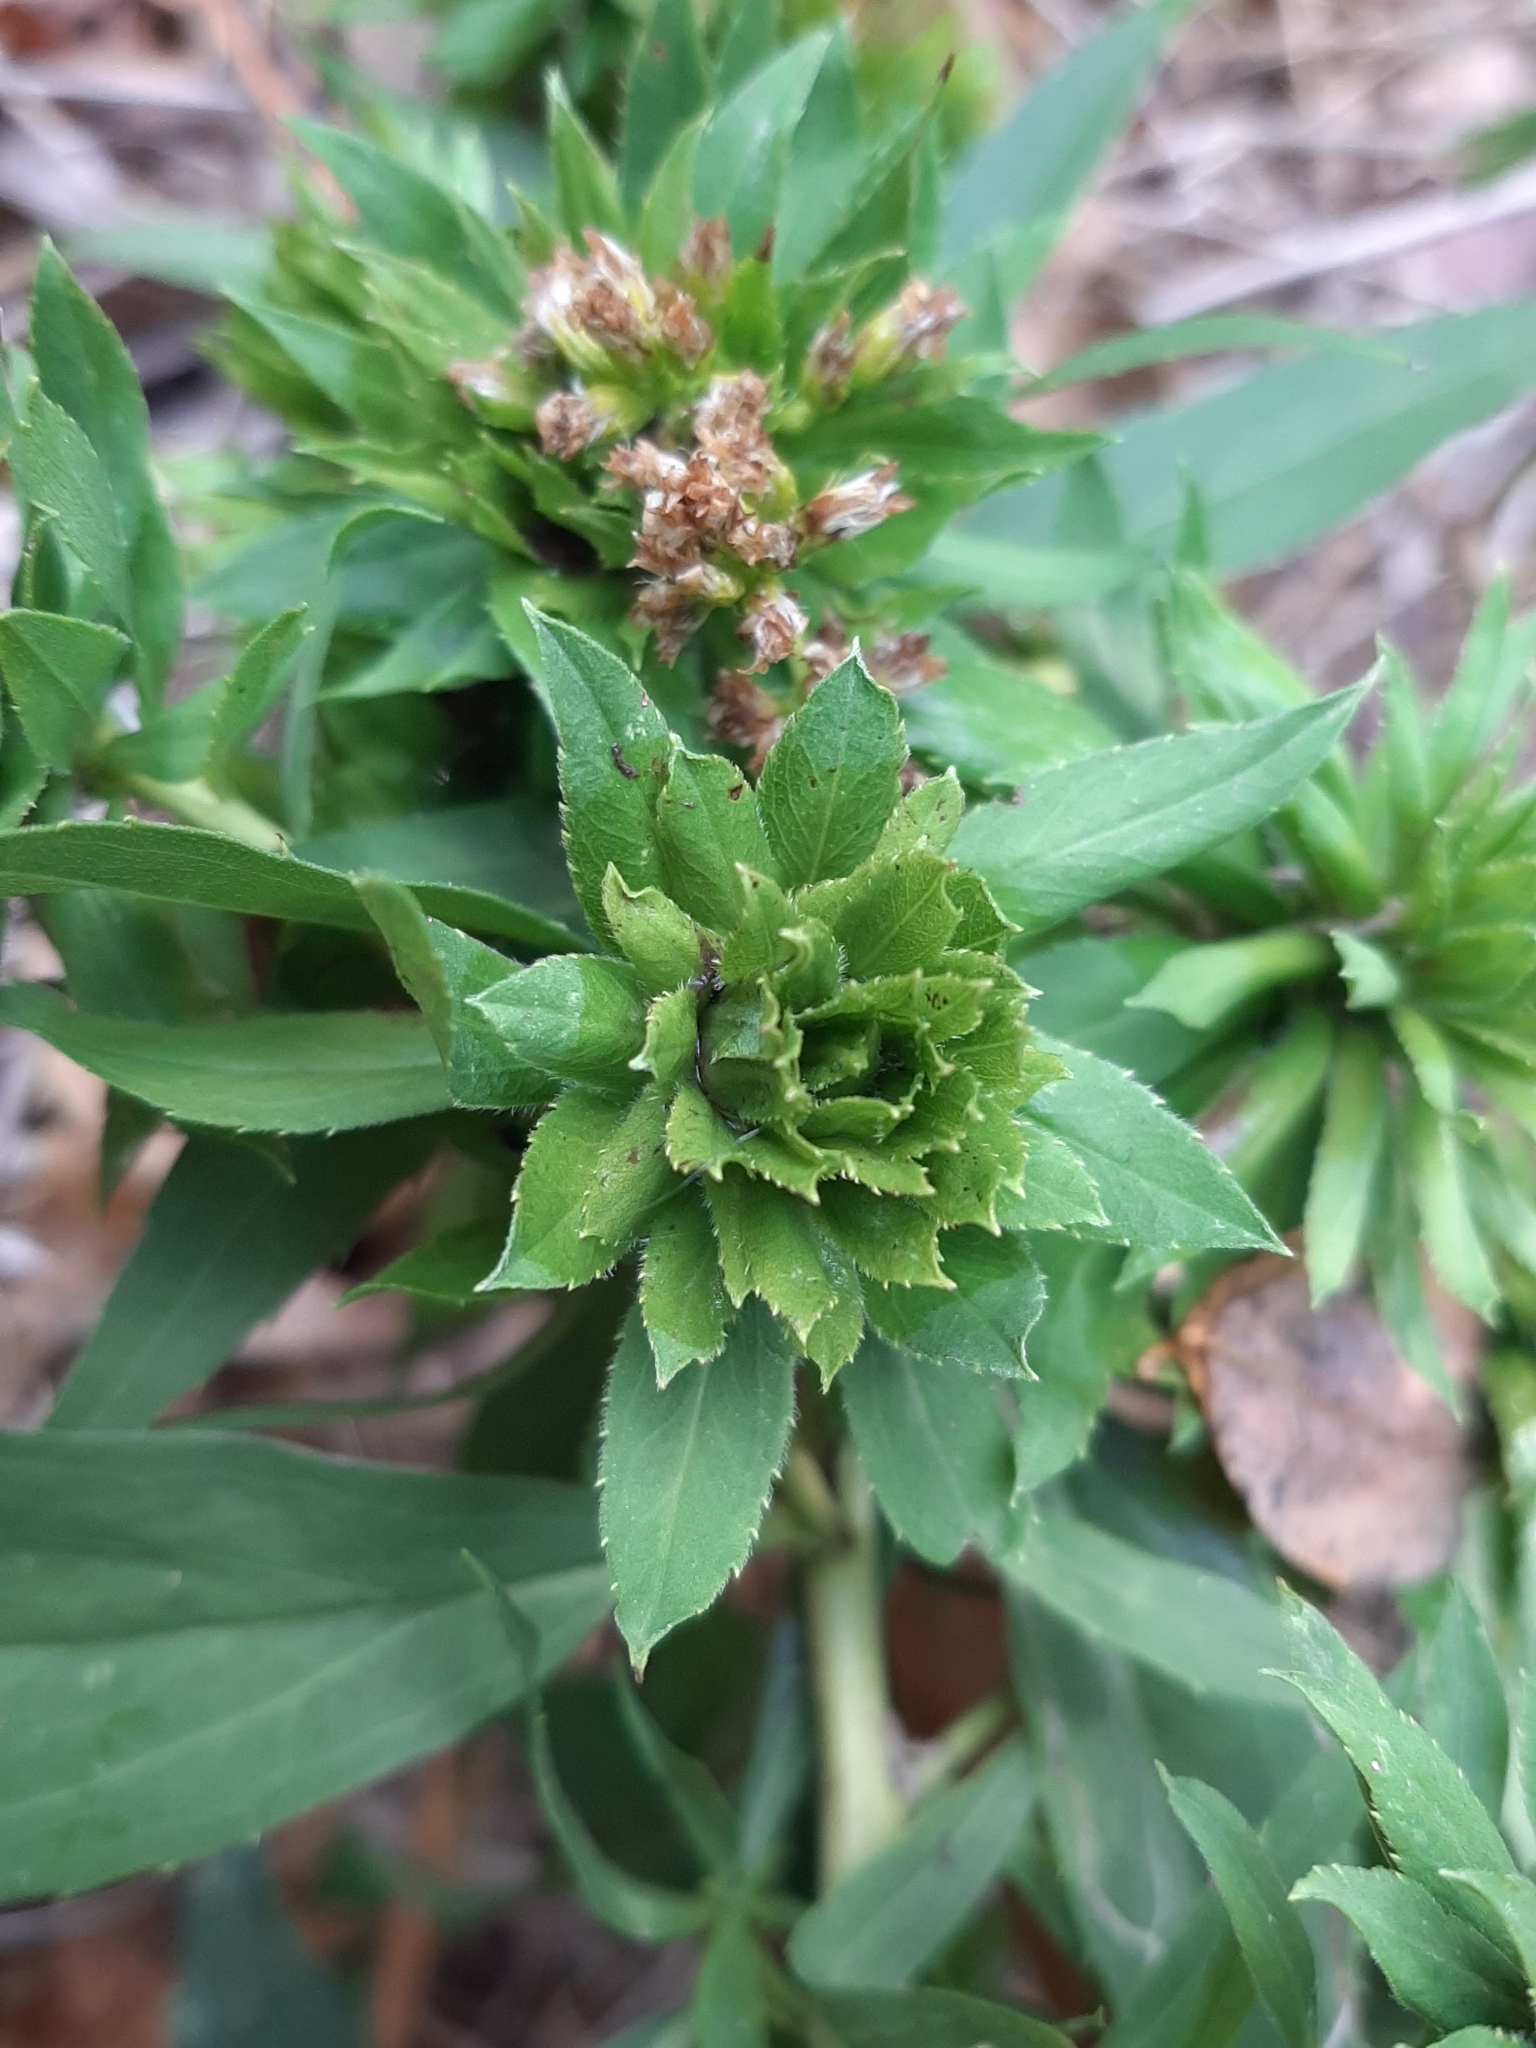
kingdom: Animalia
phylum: Arthropoda
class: Insecta
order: Diptera
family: Tephritidae
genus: Procecidochares
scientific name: Procecidochares atra
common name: Goldenrod brussels sprout gall fly
